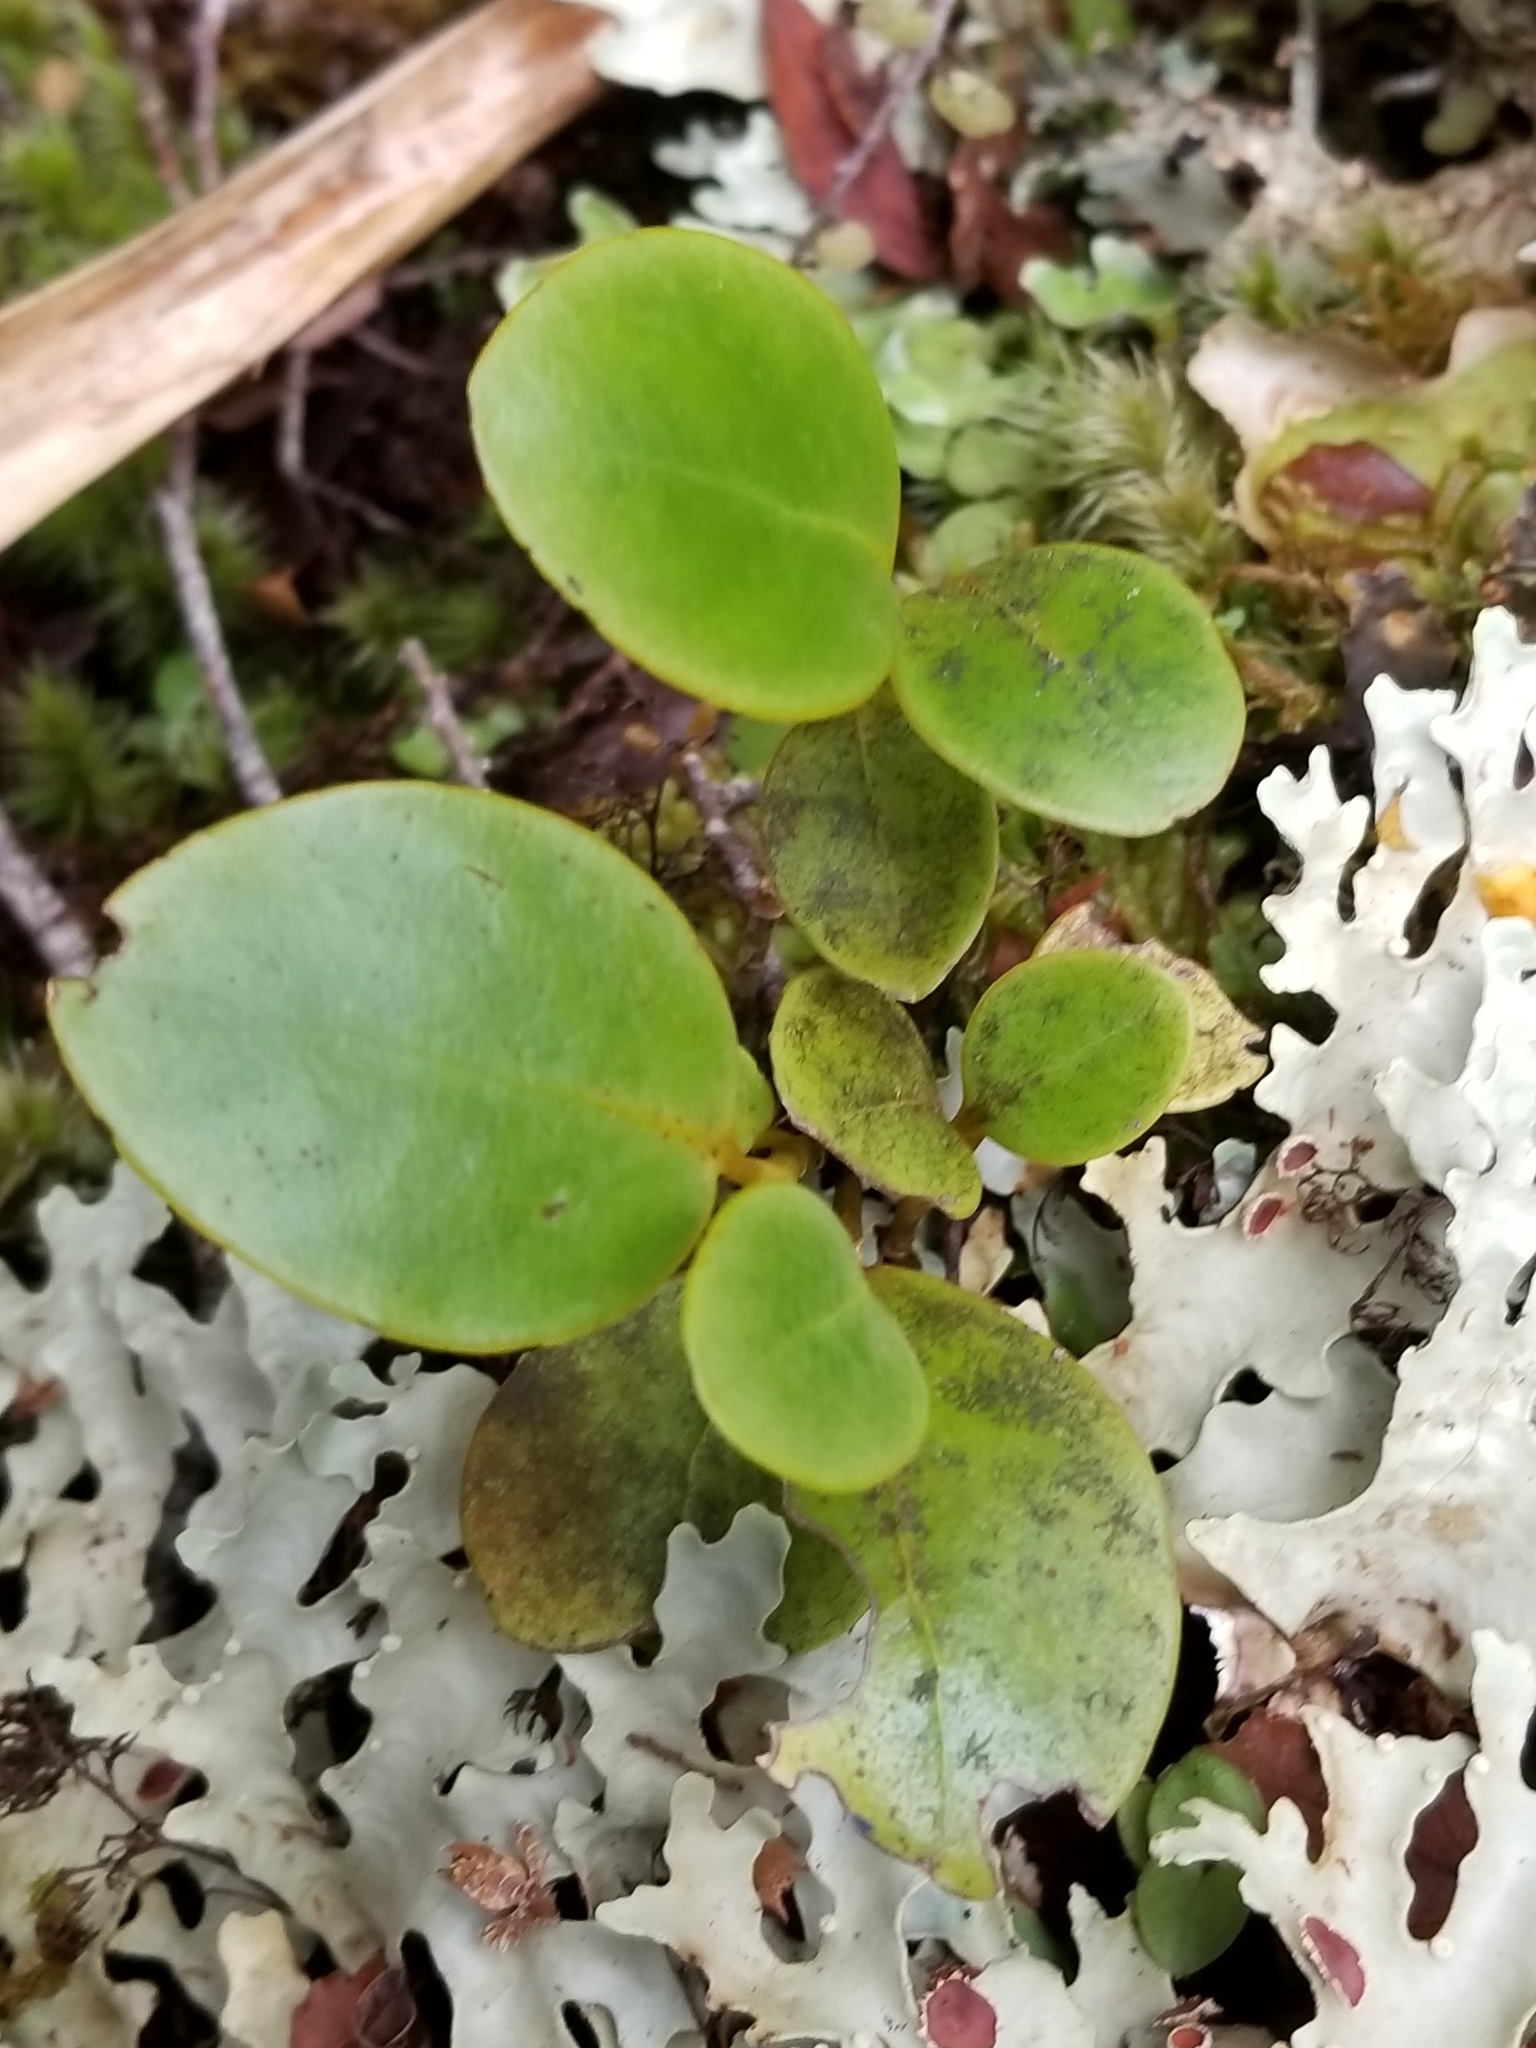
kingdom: Plantae
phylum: Tracheophyta
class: Magnoliopsida
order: Apiales
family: Griseliniaceae
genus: Griselinia
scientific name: Griselinia littoralis
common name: New zealand broadleaf
